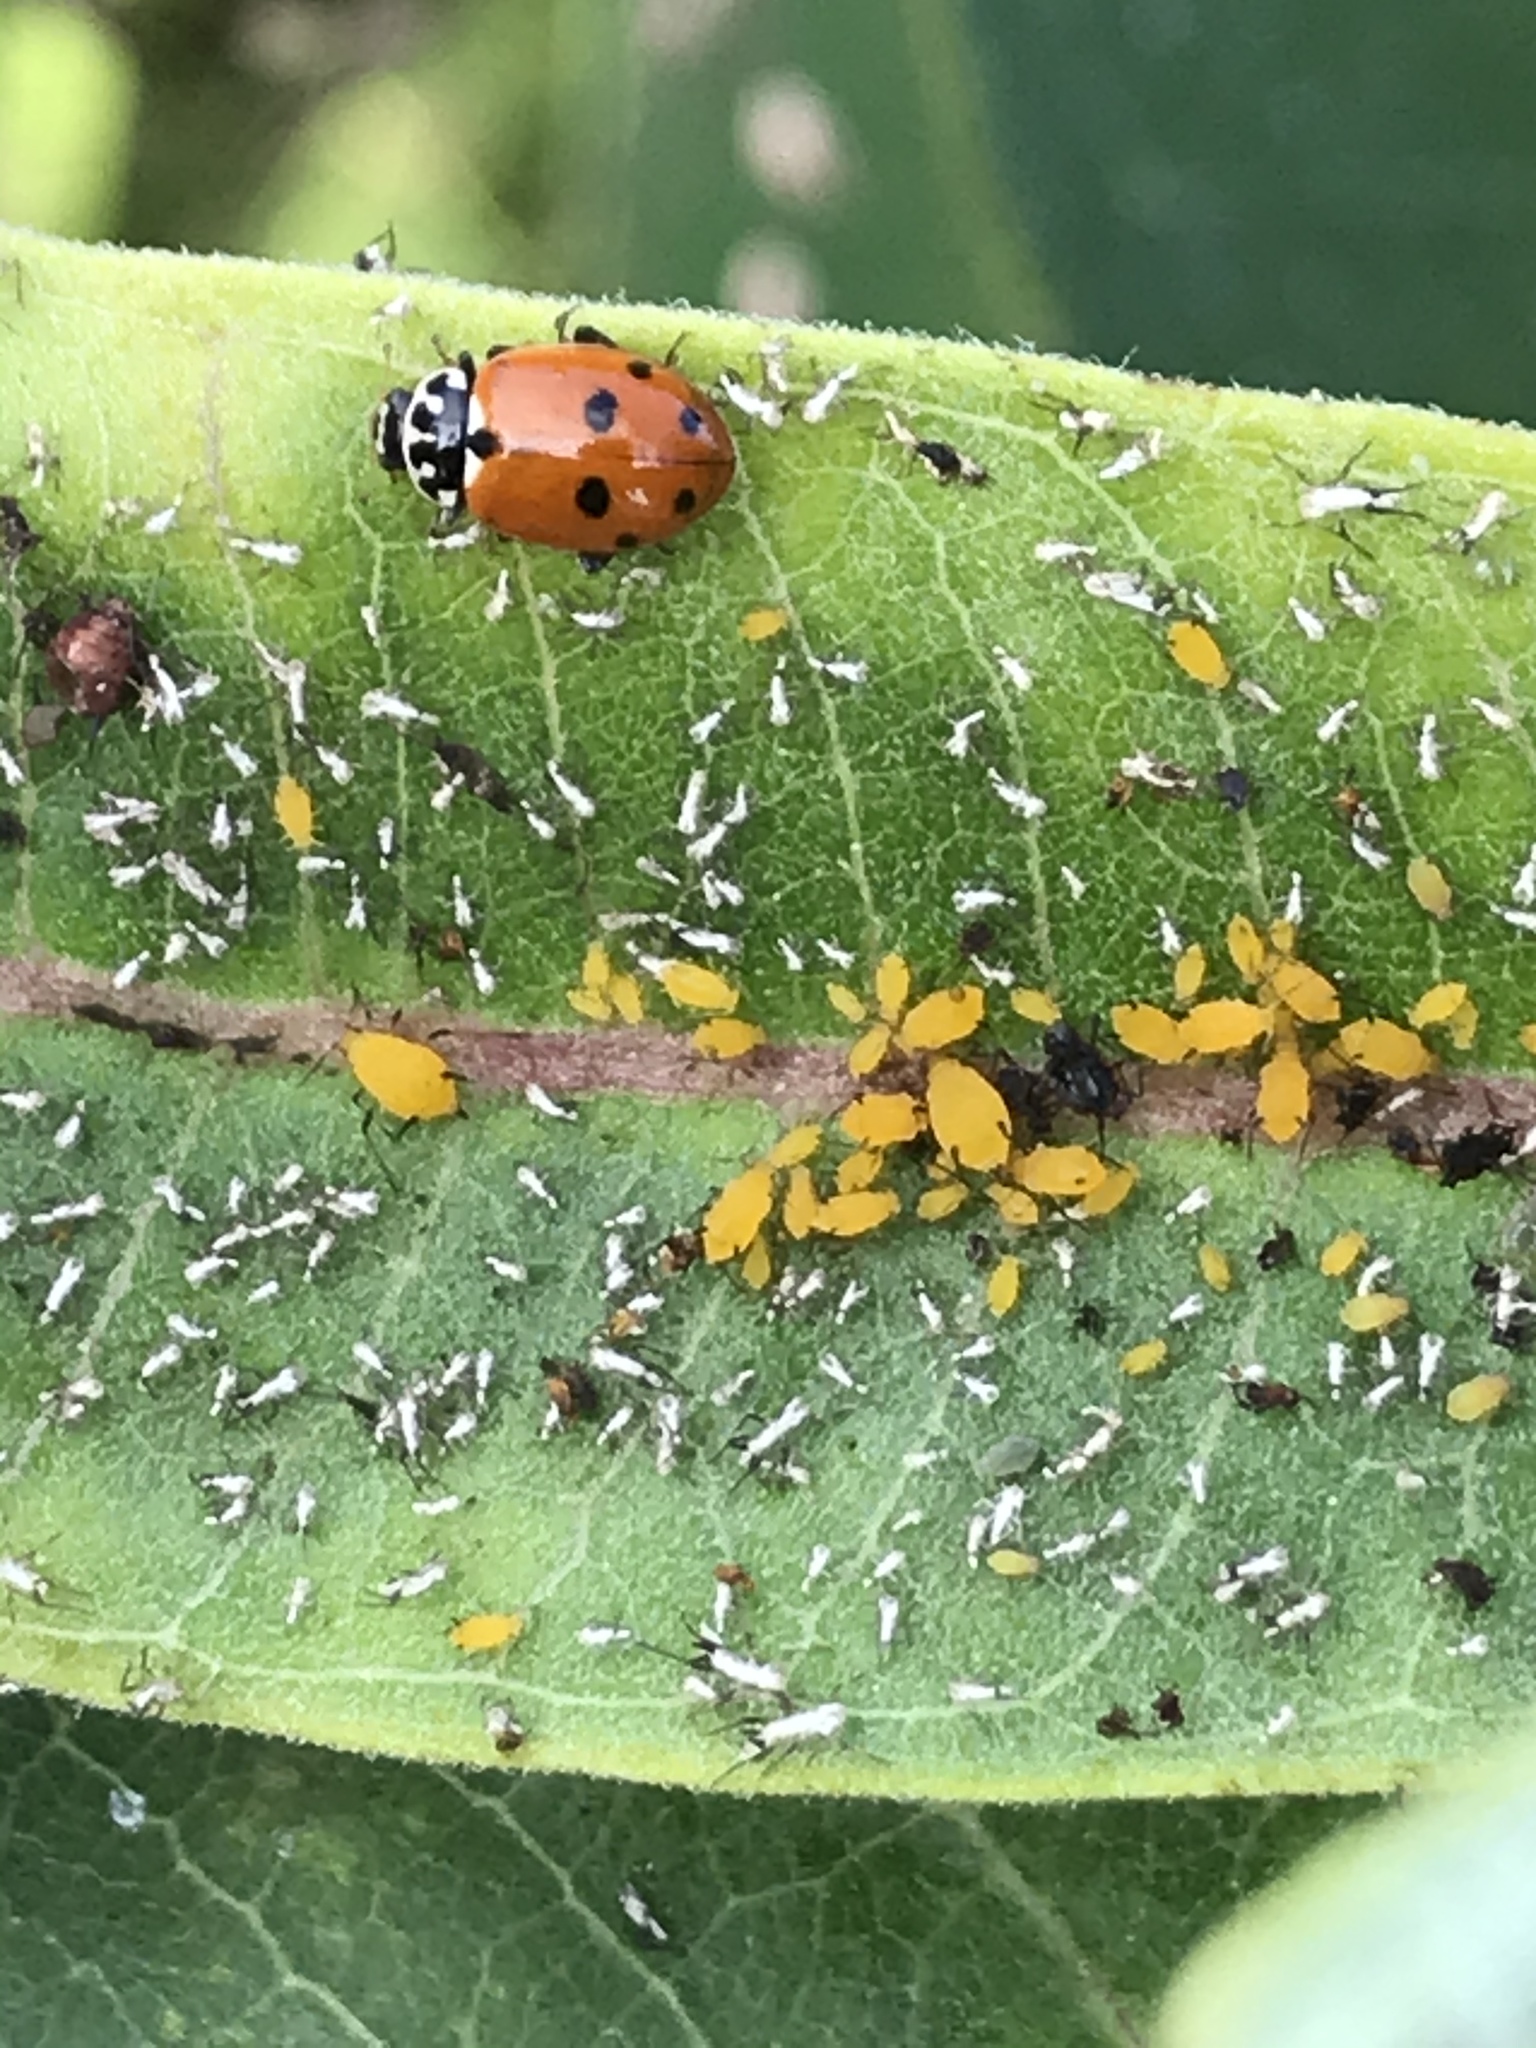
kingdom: Animalia
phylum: Arthropoda
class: Insecta
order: Coleoptera
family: Coccinellidae
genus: Hippodamia
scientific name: Hippodamia variegata
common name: Ladybird beetle
